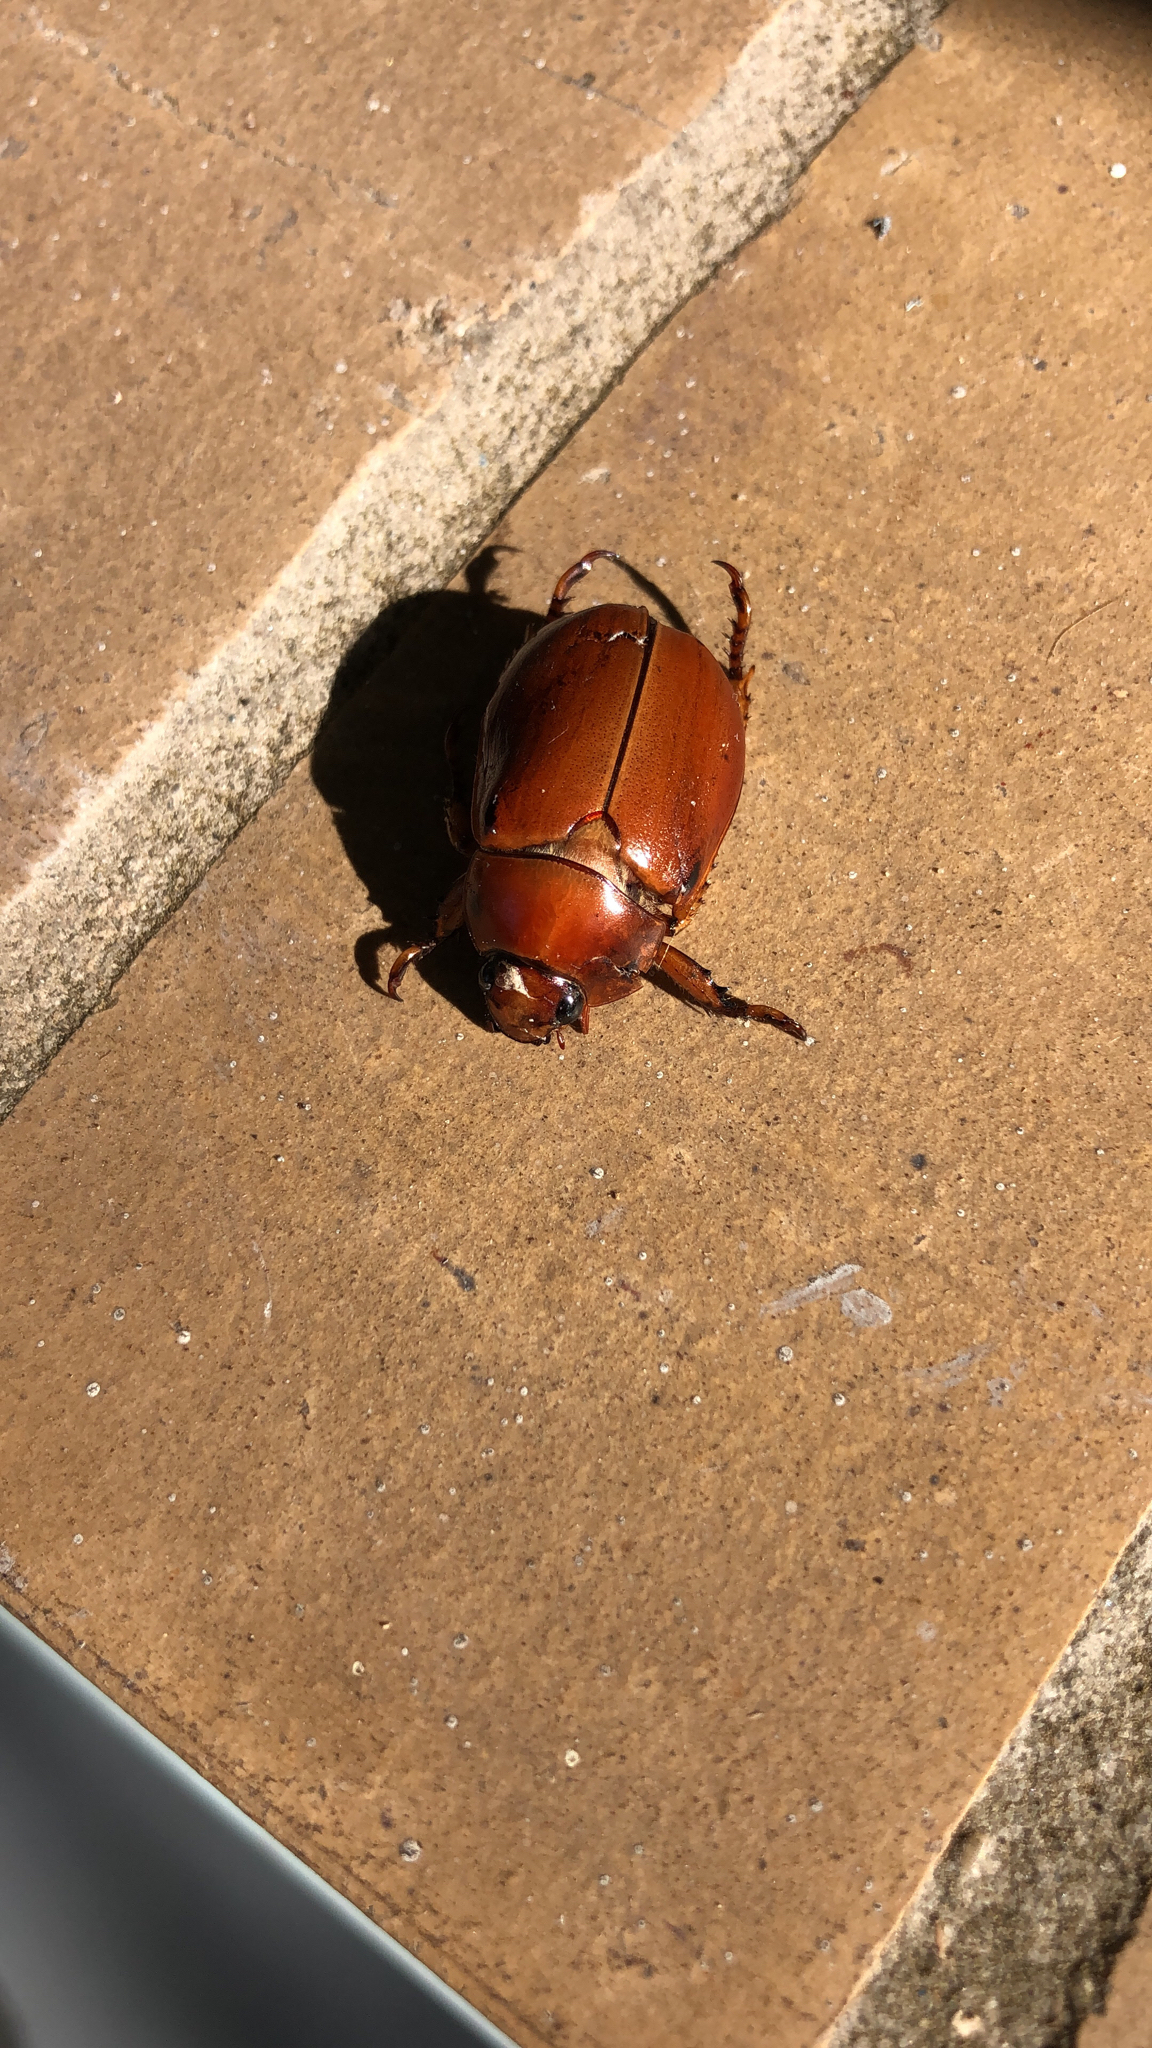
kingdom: Animalia
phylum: Arthropoda
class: Insecta
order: Coleoptera
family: Scarabaeidae
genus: Pelidnota
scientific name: Pelidnota punctata
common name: Grapevine beetle
